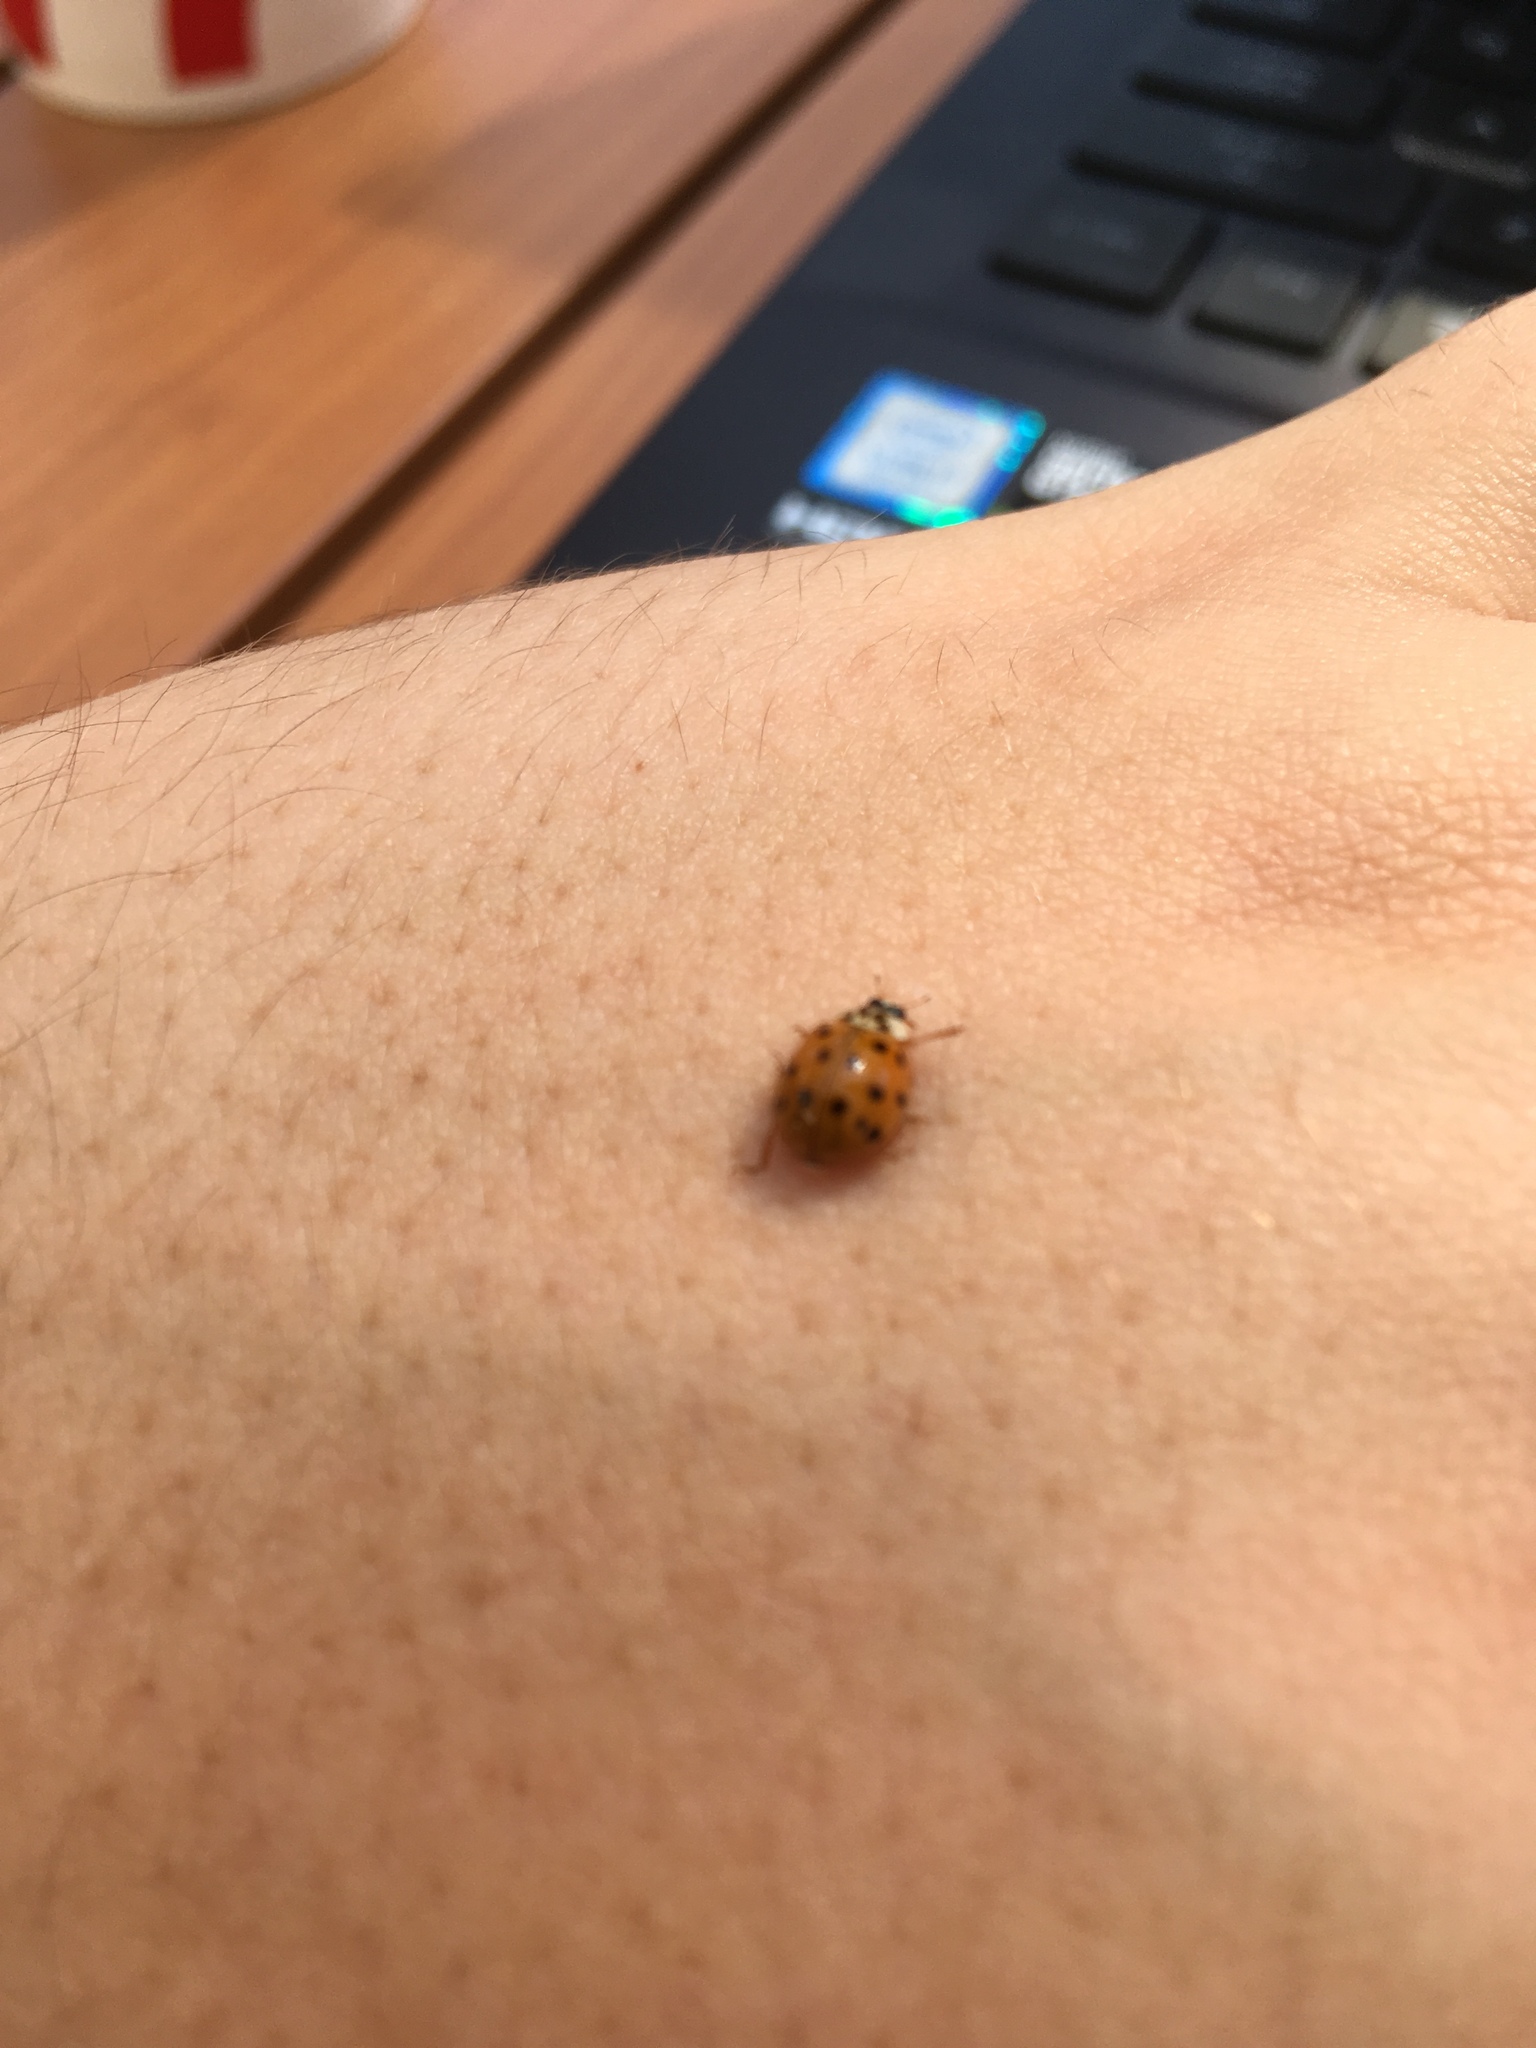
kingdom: Animalia
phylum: Arthropoda
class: Insecta
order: Coleoptera
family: Coccinellidae
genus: Harmonia
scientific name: Harmonia axyridis
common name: Harlequin ladybird
